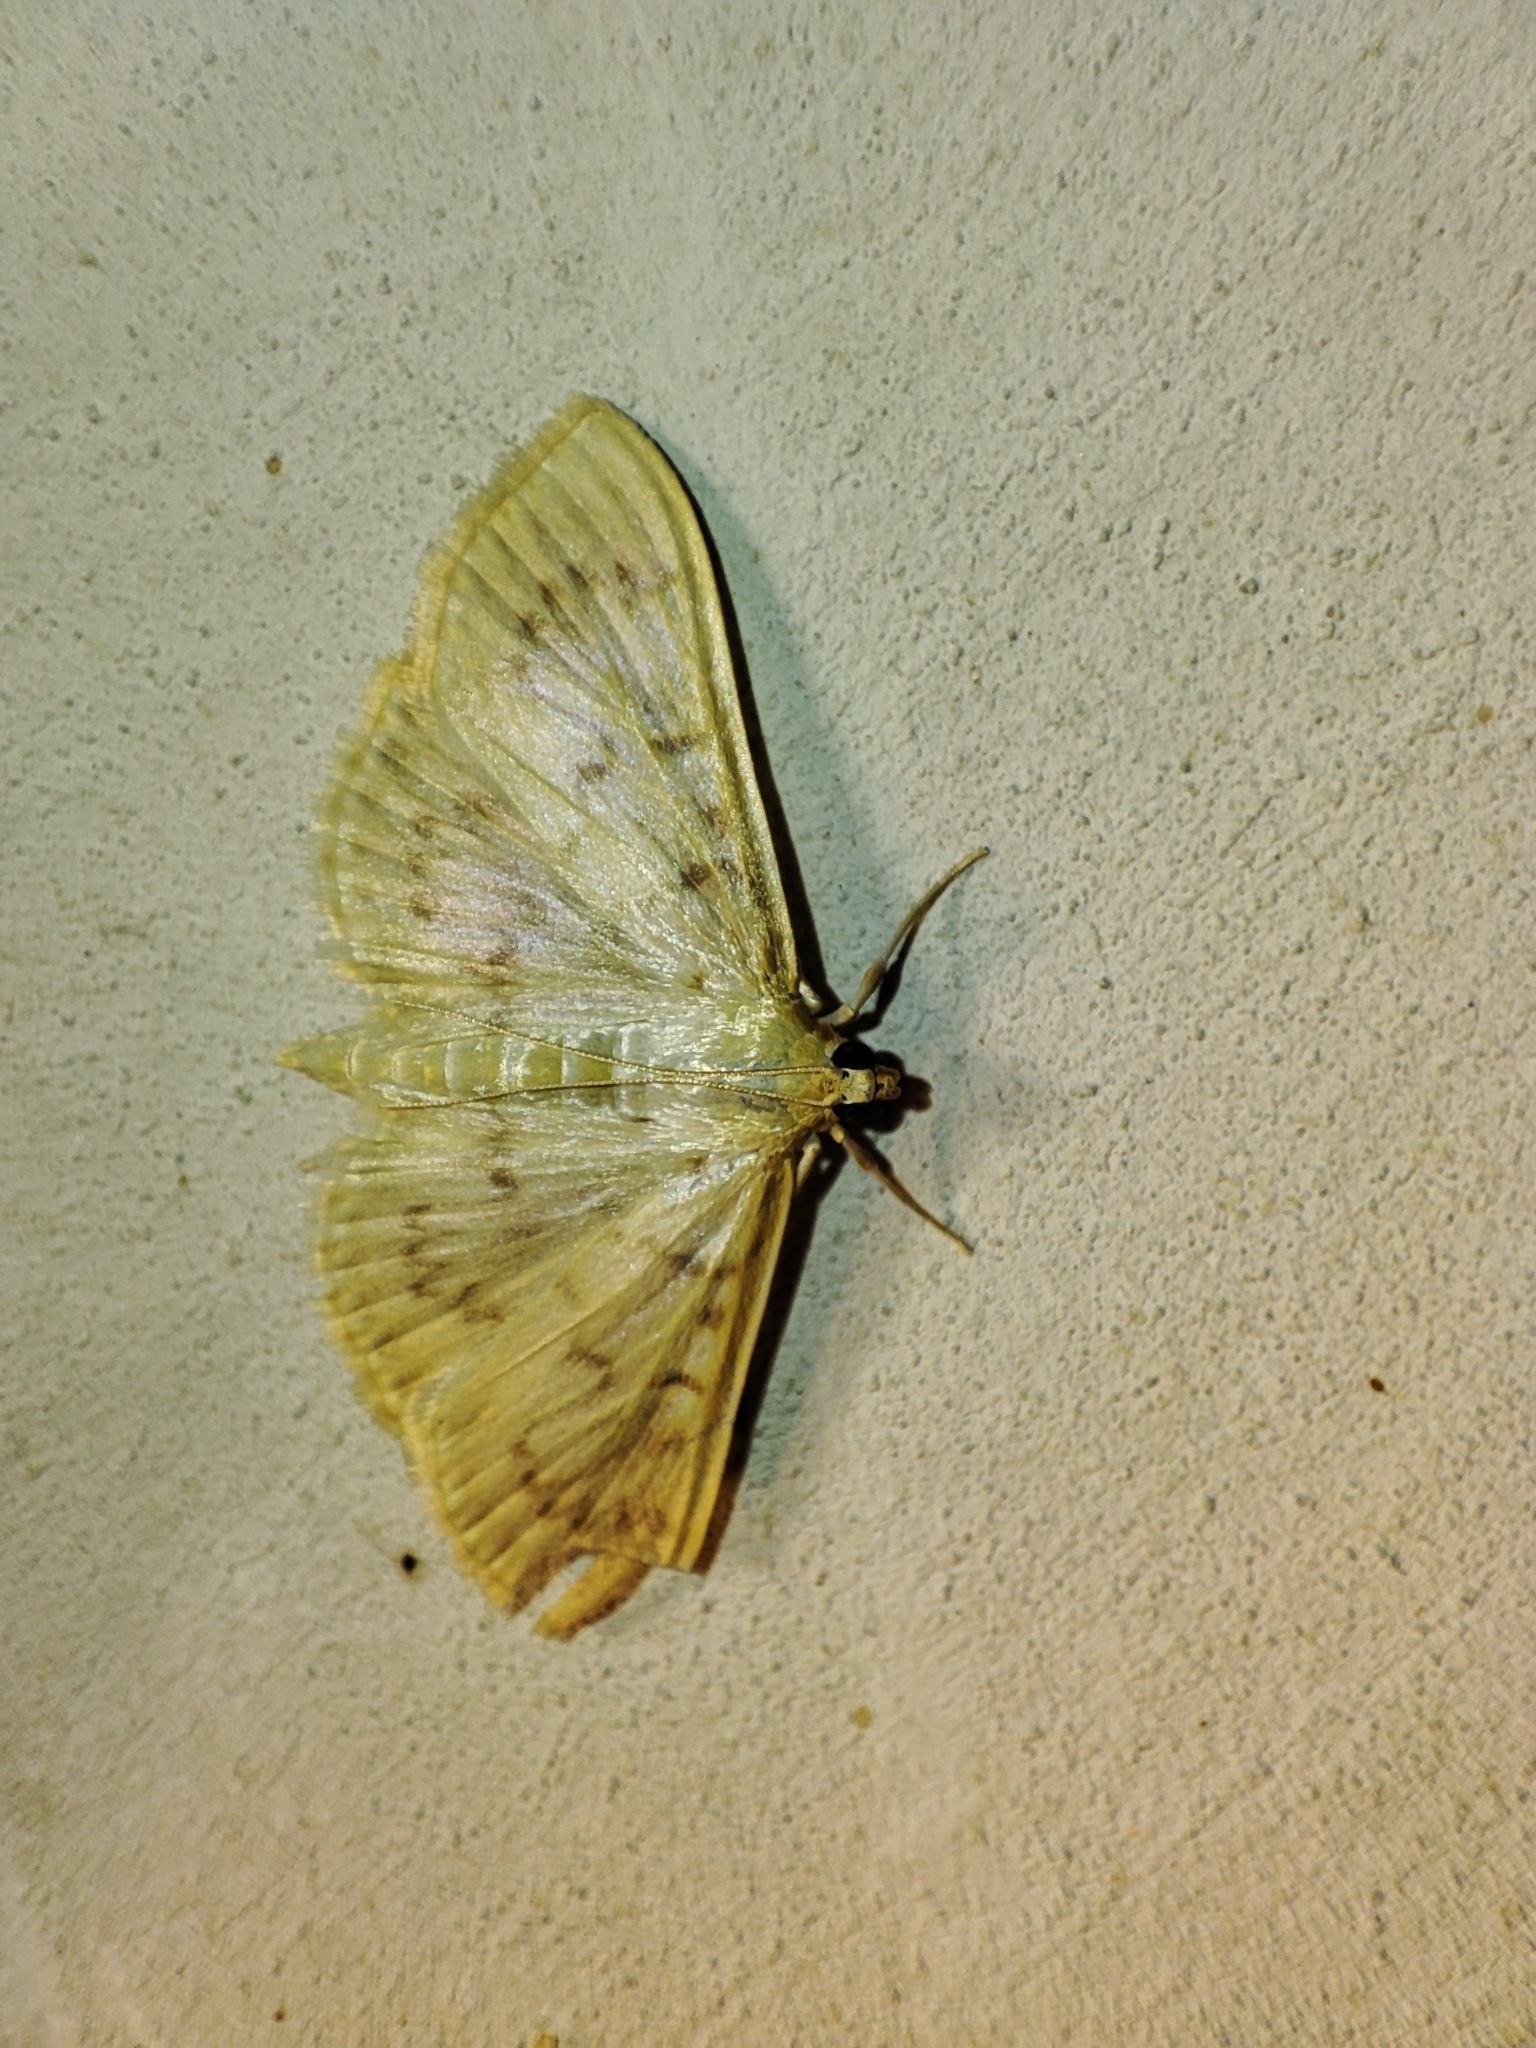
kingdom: Animalia
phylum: Arthropoda
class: Insecta
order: Lepidoptera
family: Crambidae
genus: Patania
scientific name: Patania ruralis
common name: Mother of pearl
